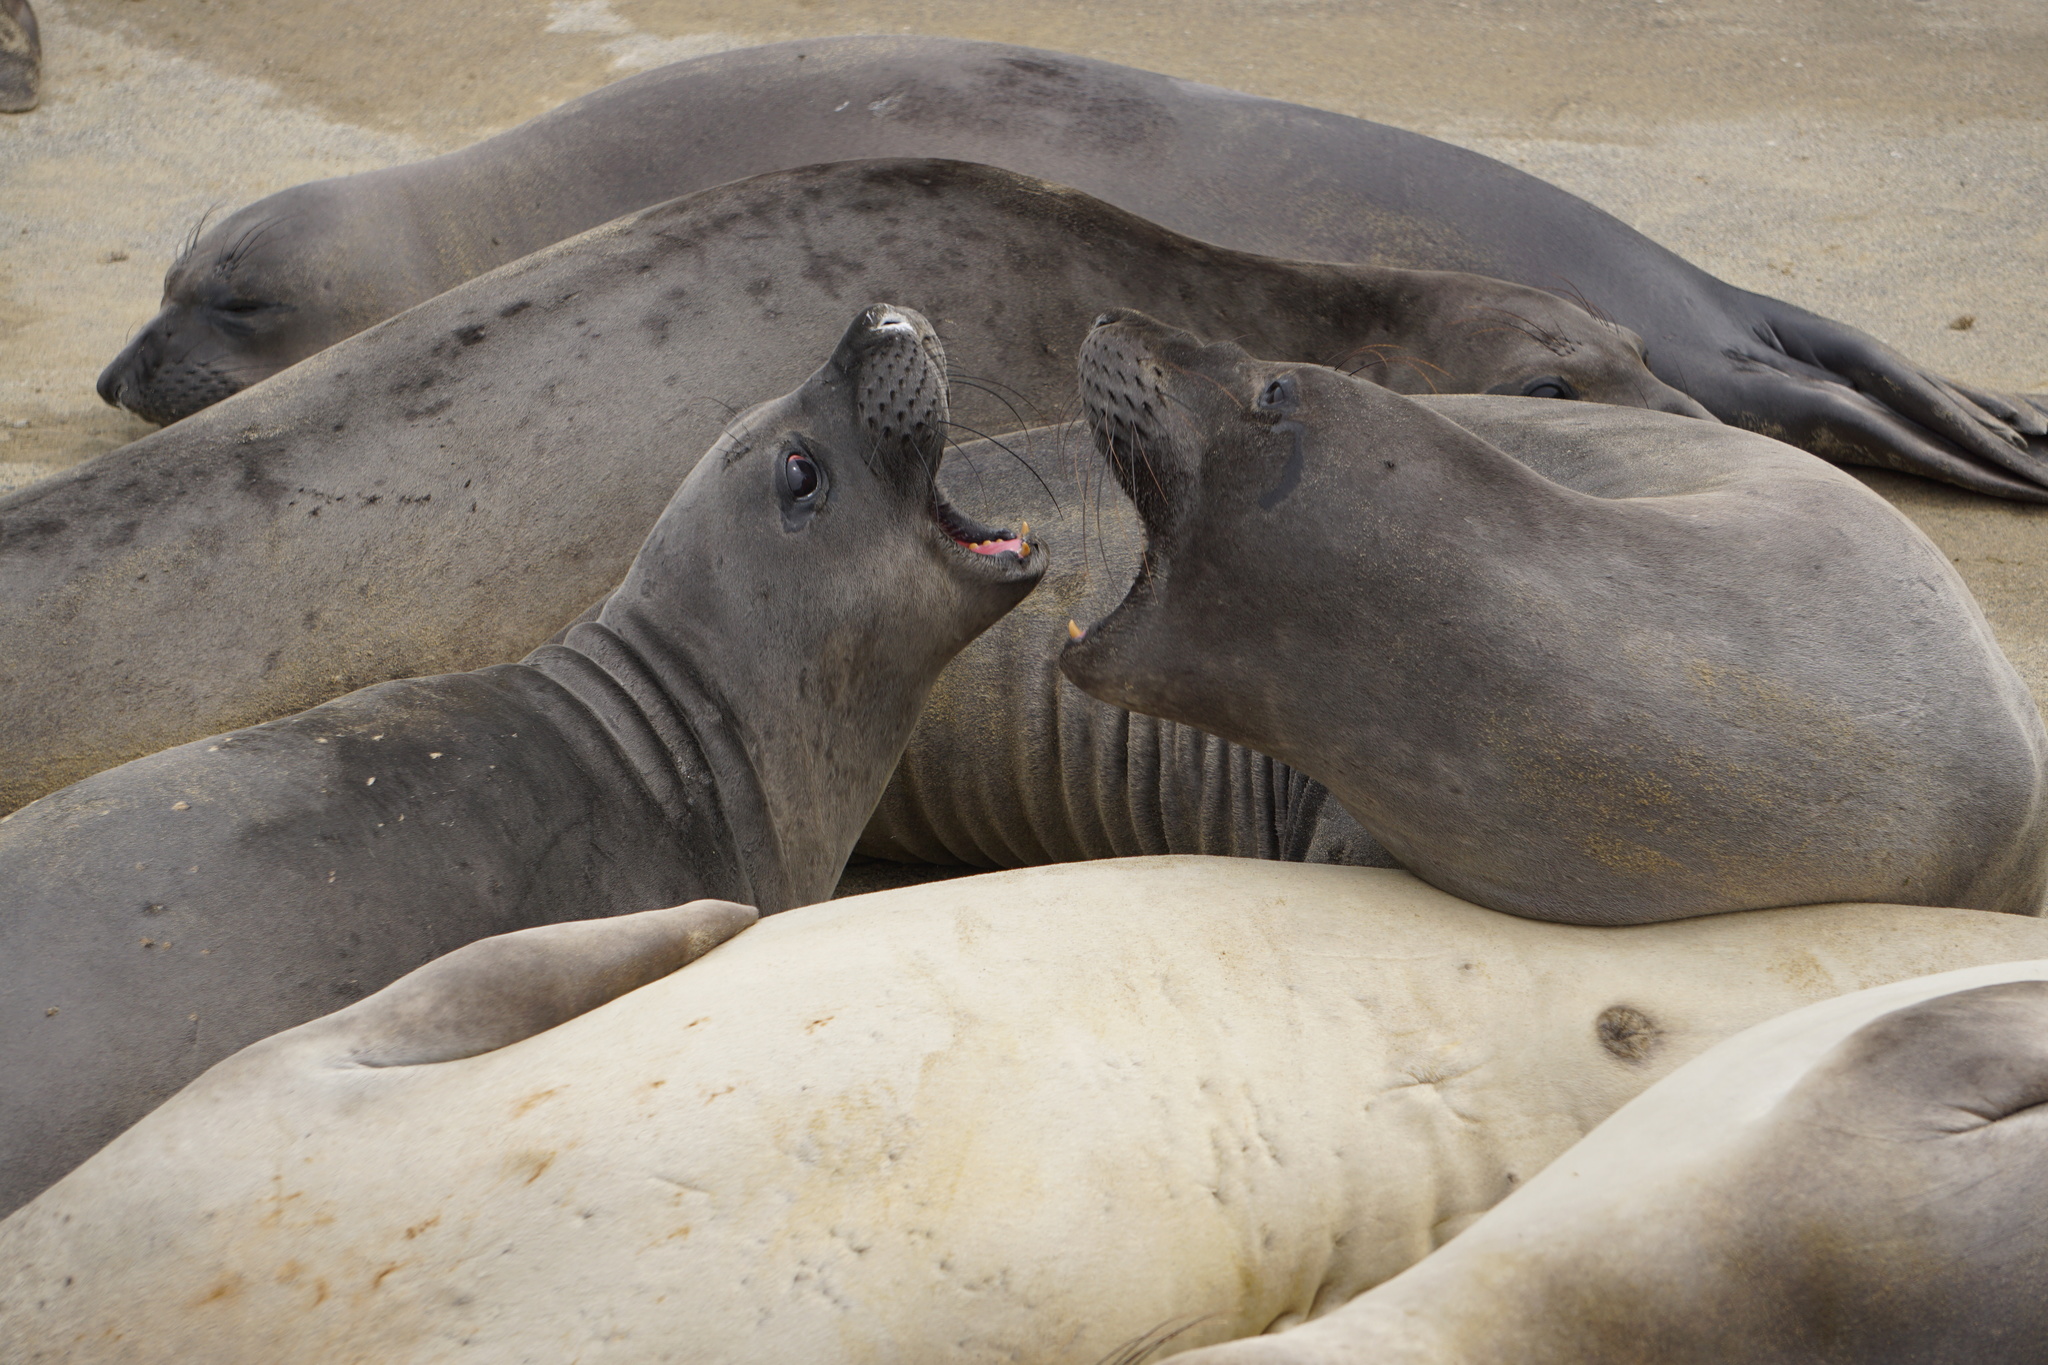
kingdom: Animalia
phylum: Chordata
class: Mammalia
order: Carnivora
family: Phocidae
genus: Mirounga
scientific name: Mirounga angustirostris
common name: Northern elephant seal
